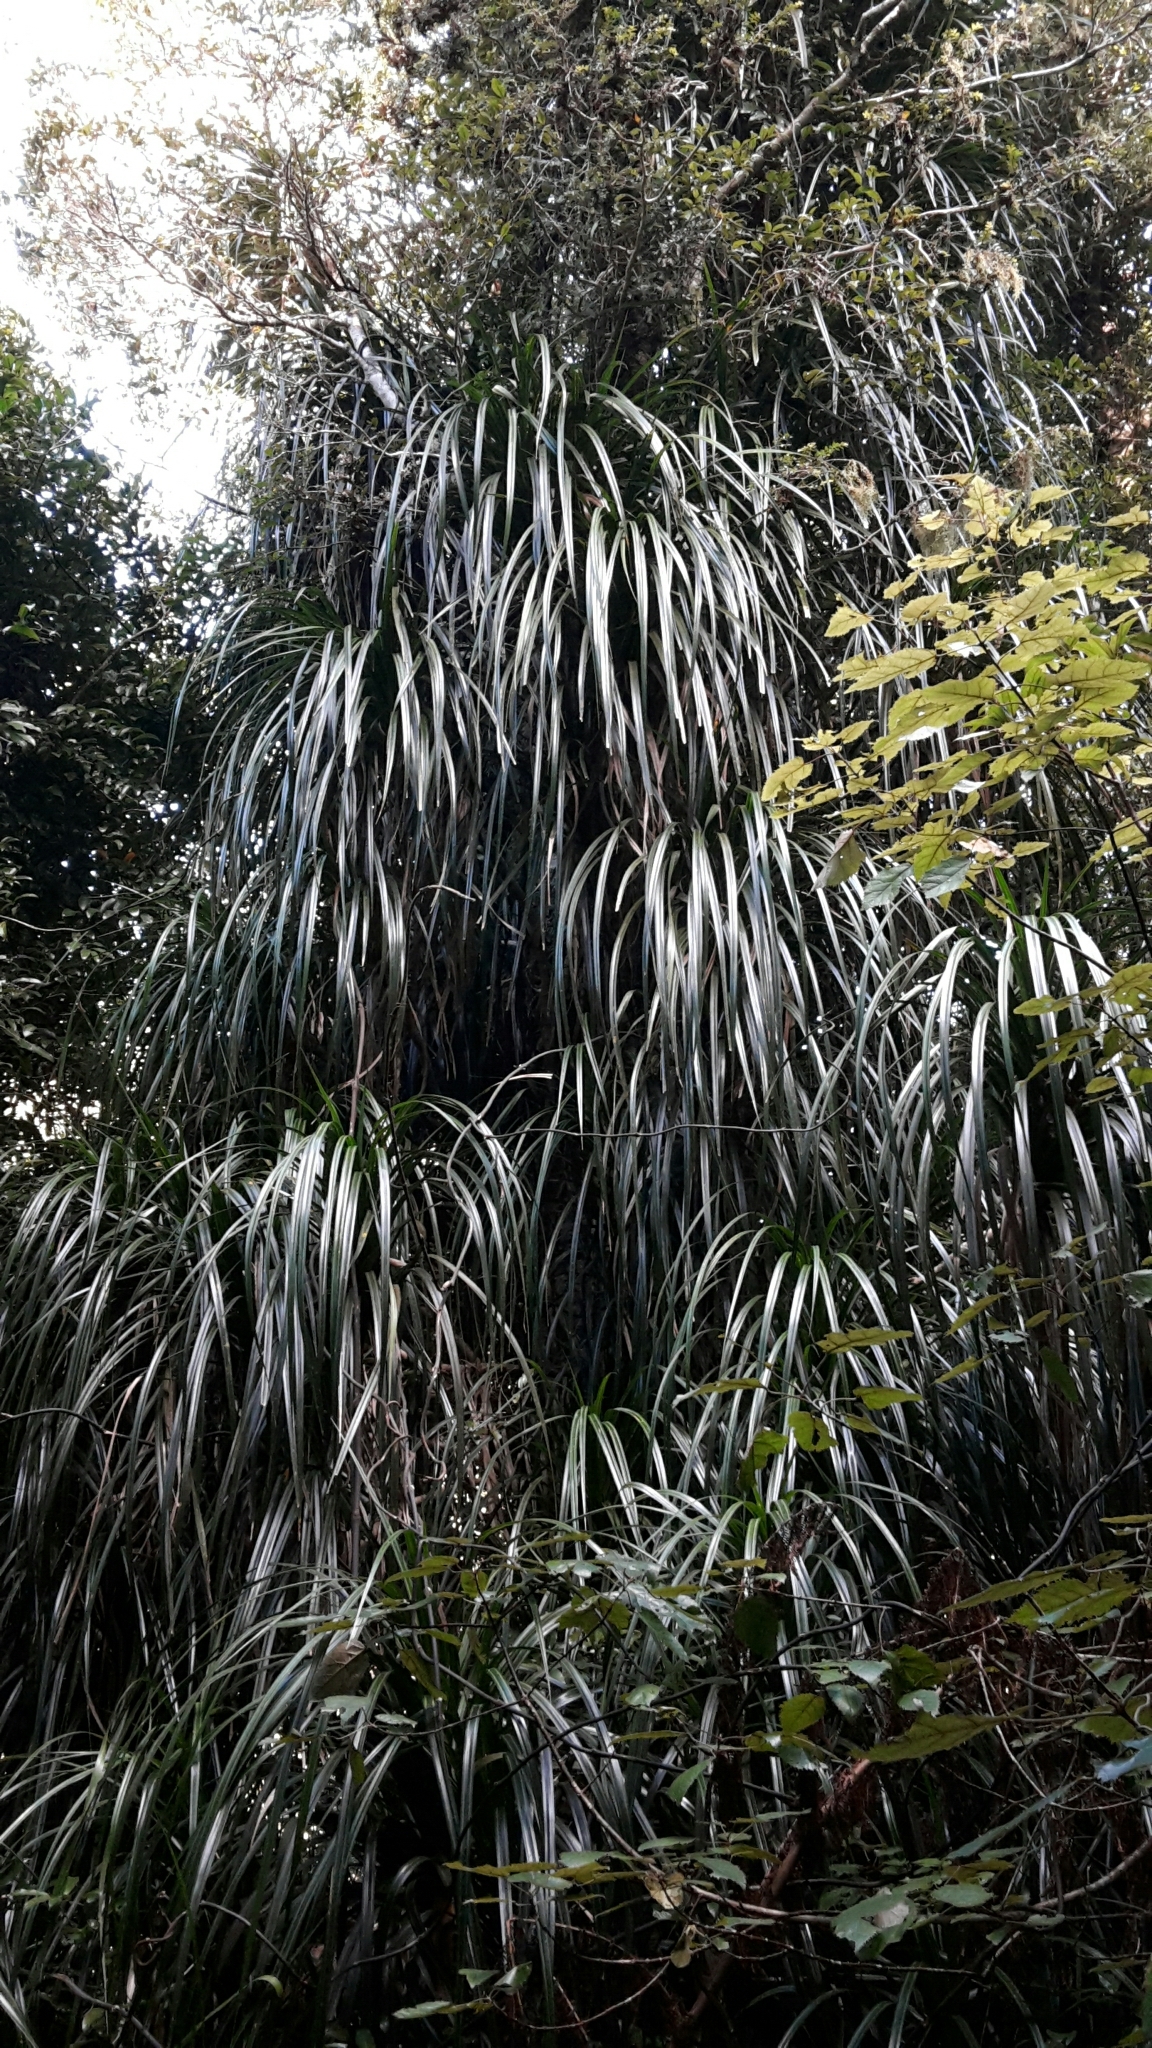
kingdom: Plantae
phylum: Tracheophyta
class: Liliopsida
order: Pandanales
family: Pandanaceae
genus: Freycinetia
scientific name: Freycinetia banksii
